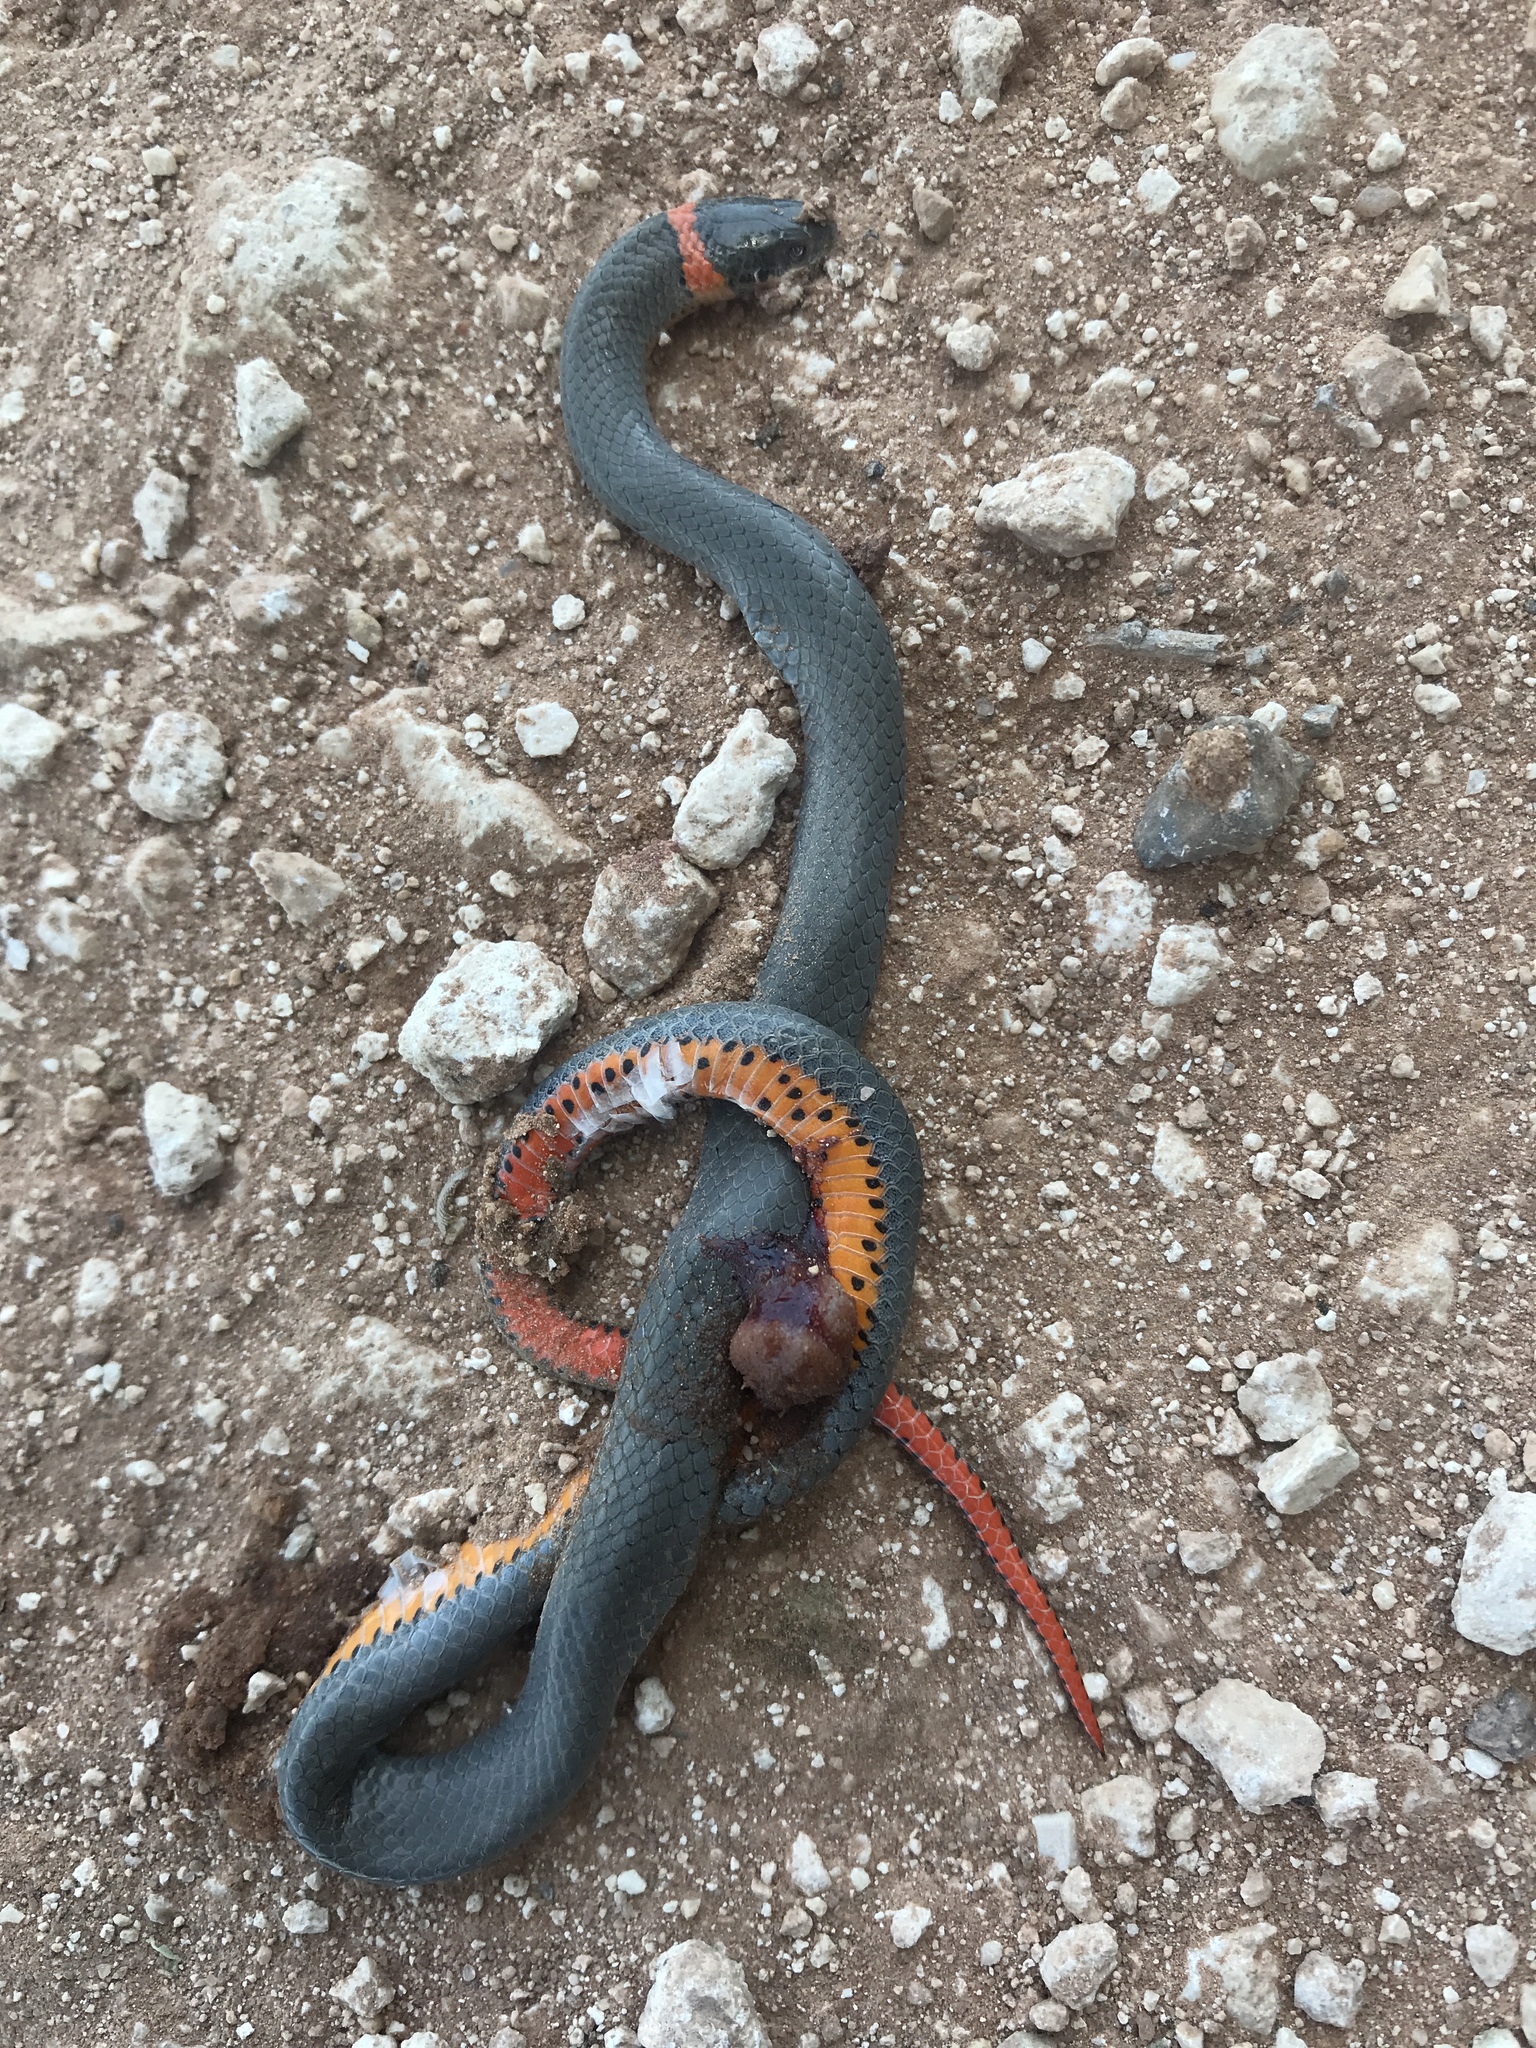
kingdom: Animalia
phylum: Chordata
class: Squamata
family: Colubridae
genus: Diadophis
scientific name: Diadophis punctatus
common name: Ringneck snake
